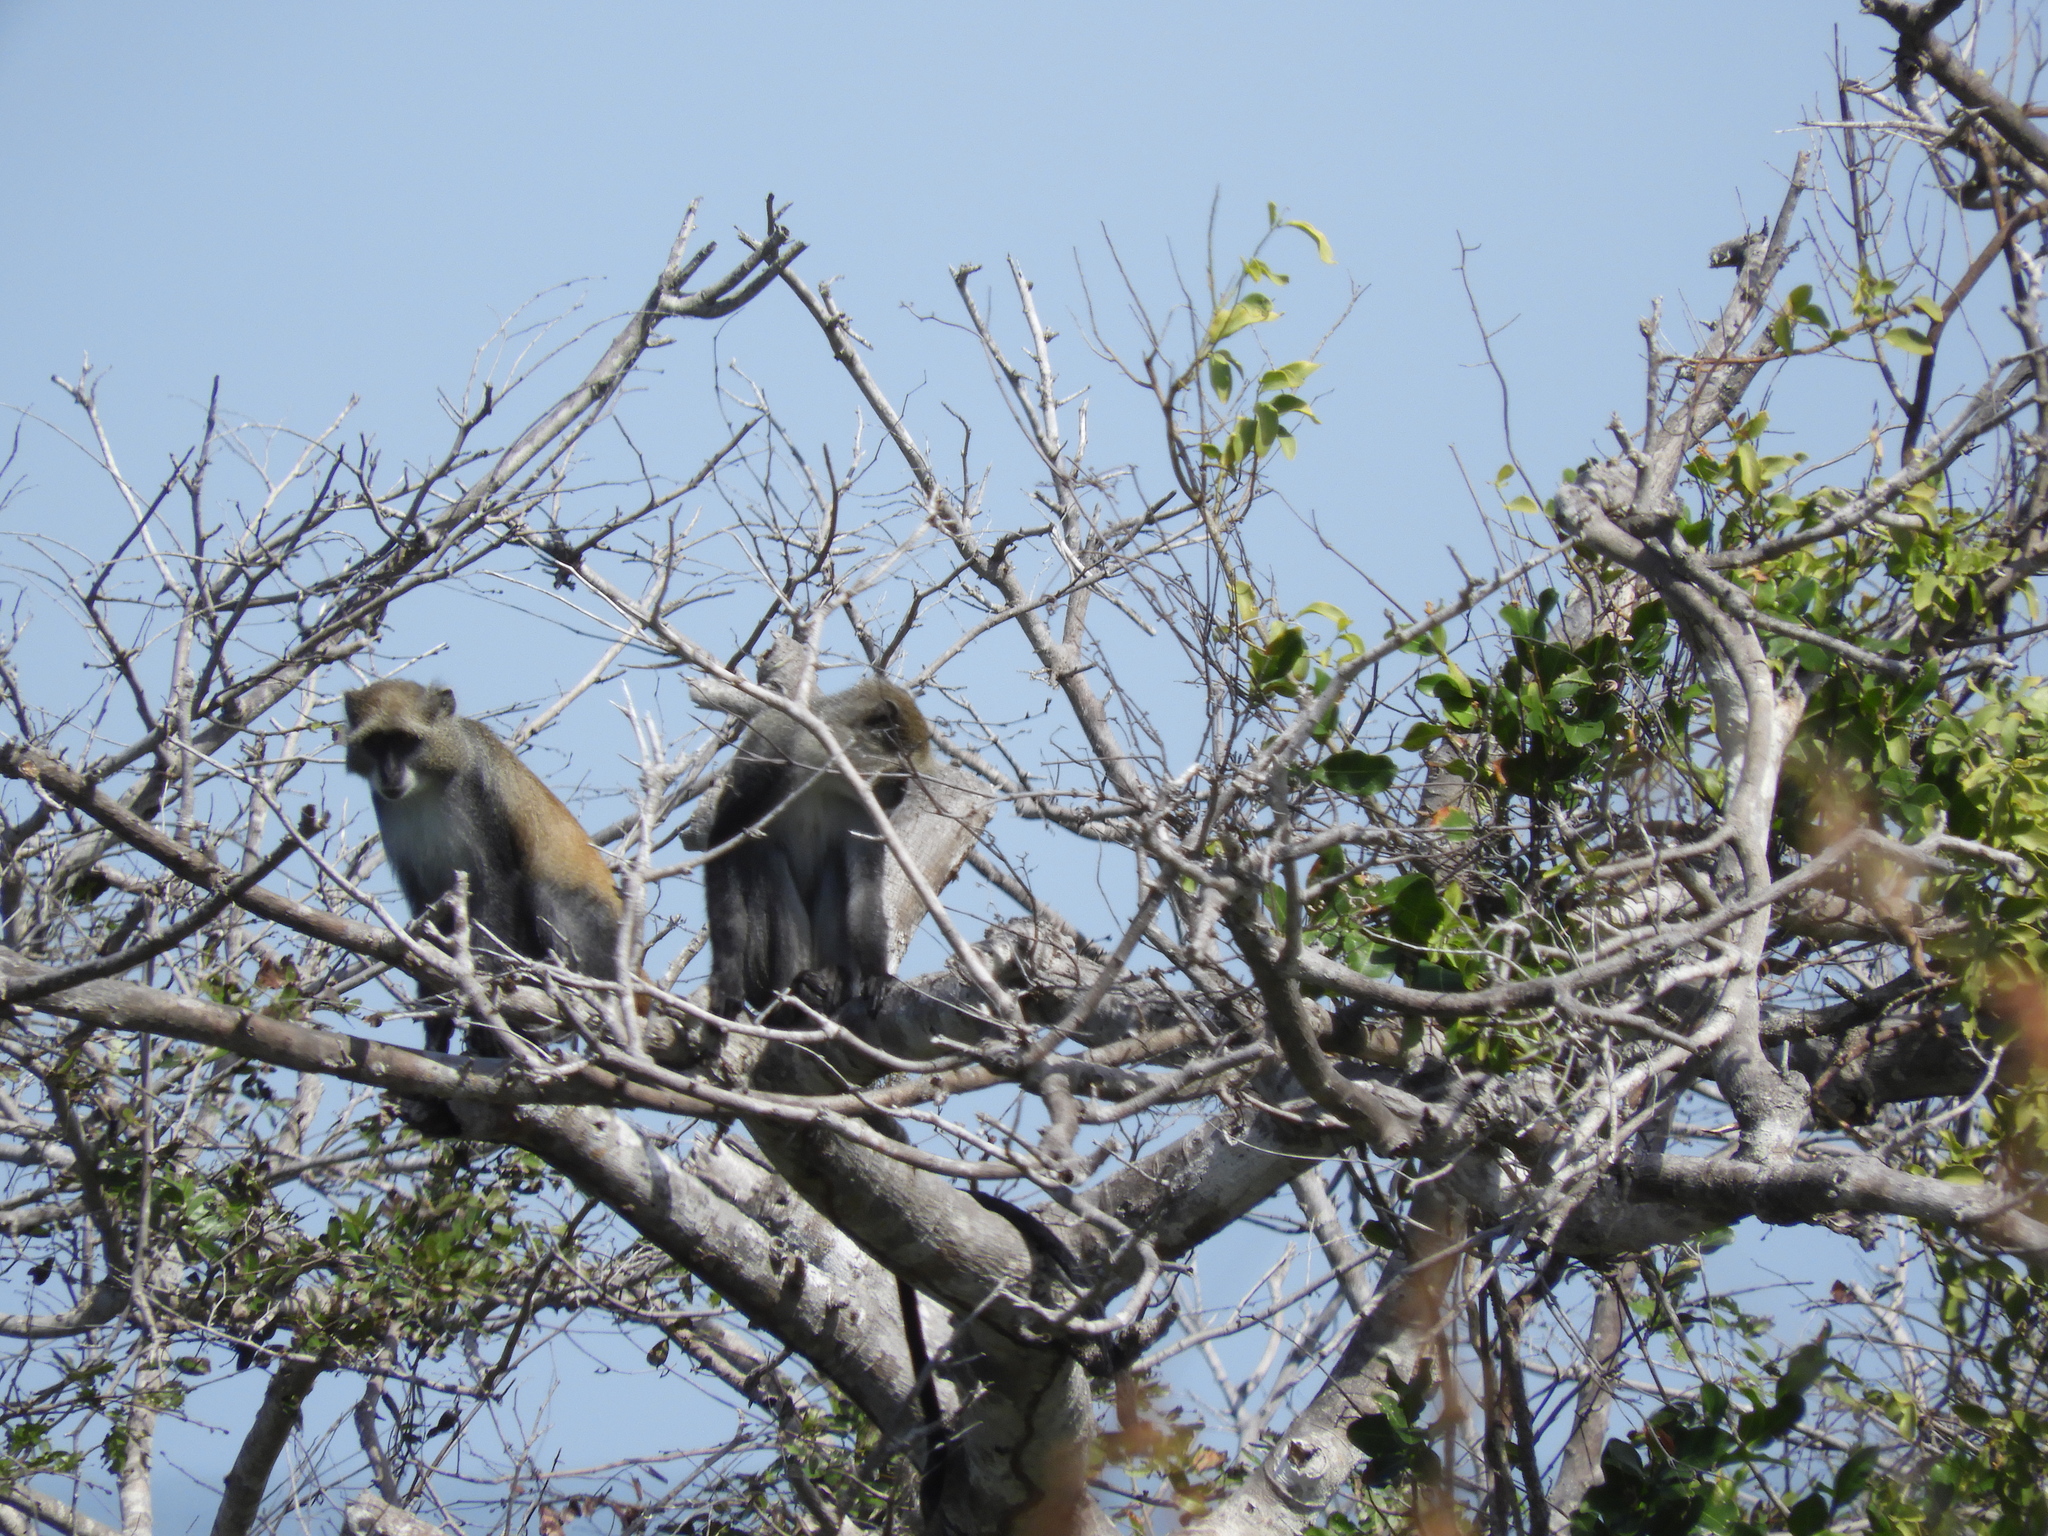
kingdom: Animalia
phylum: Chordata
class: Mammalia
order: Primates
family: Cercopithecidae
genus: Cercopithecus
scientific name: Cercopithecus mitis
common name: Blue monkey
